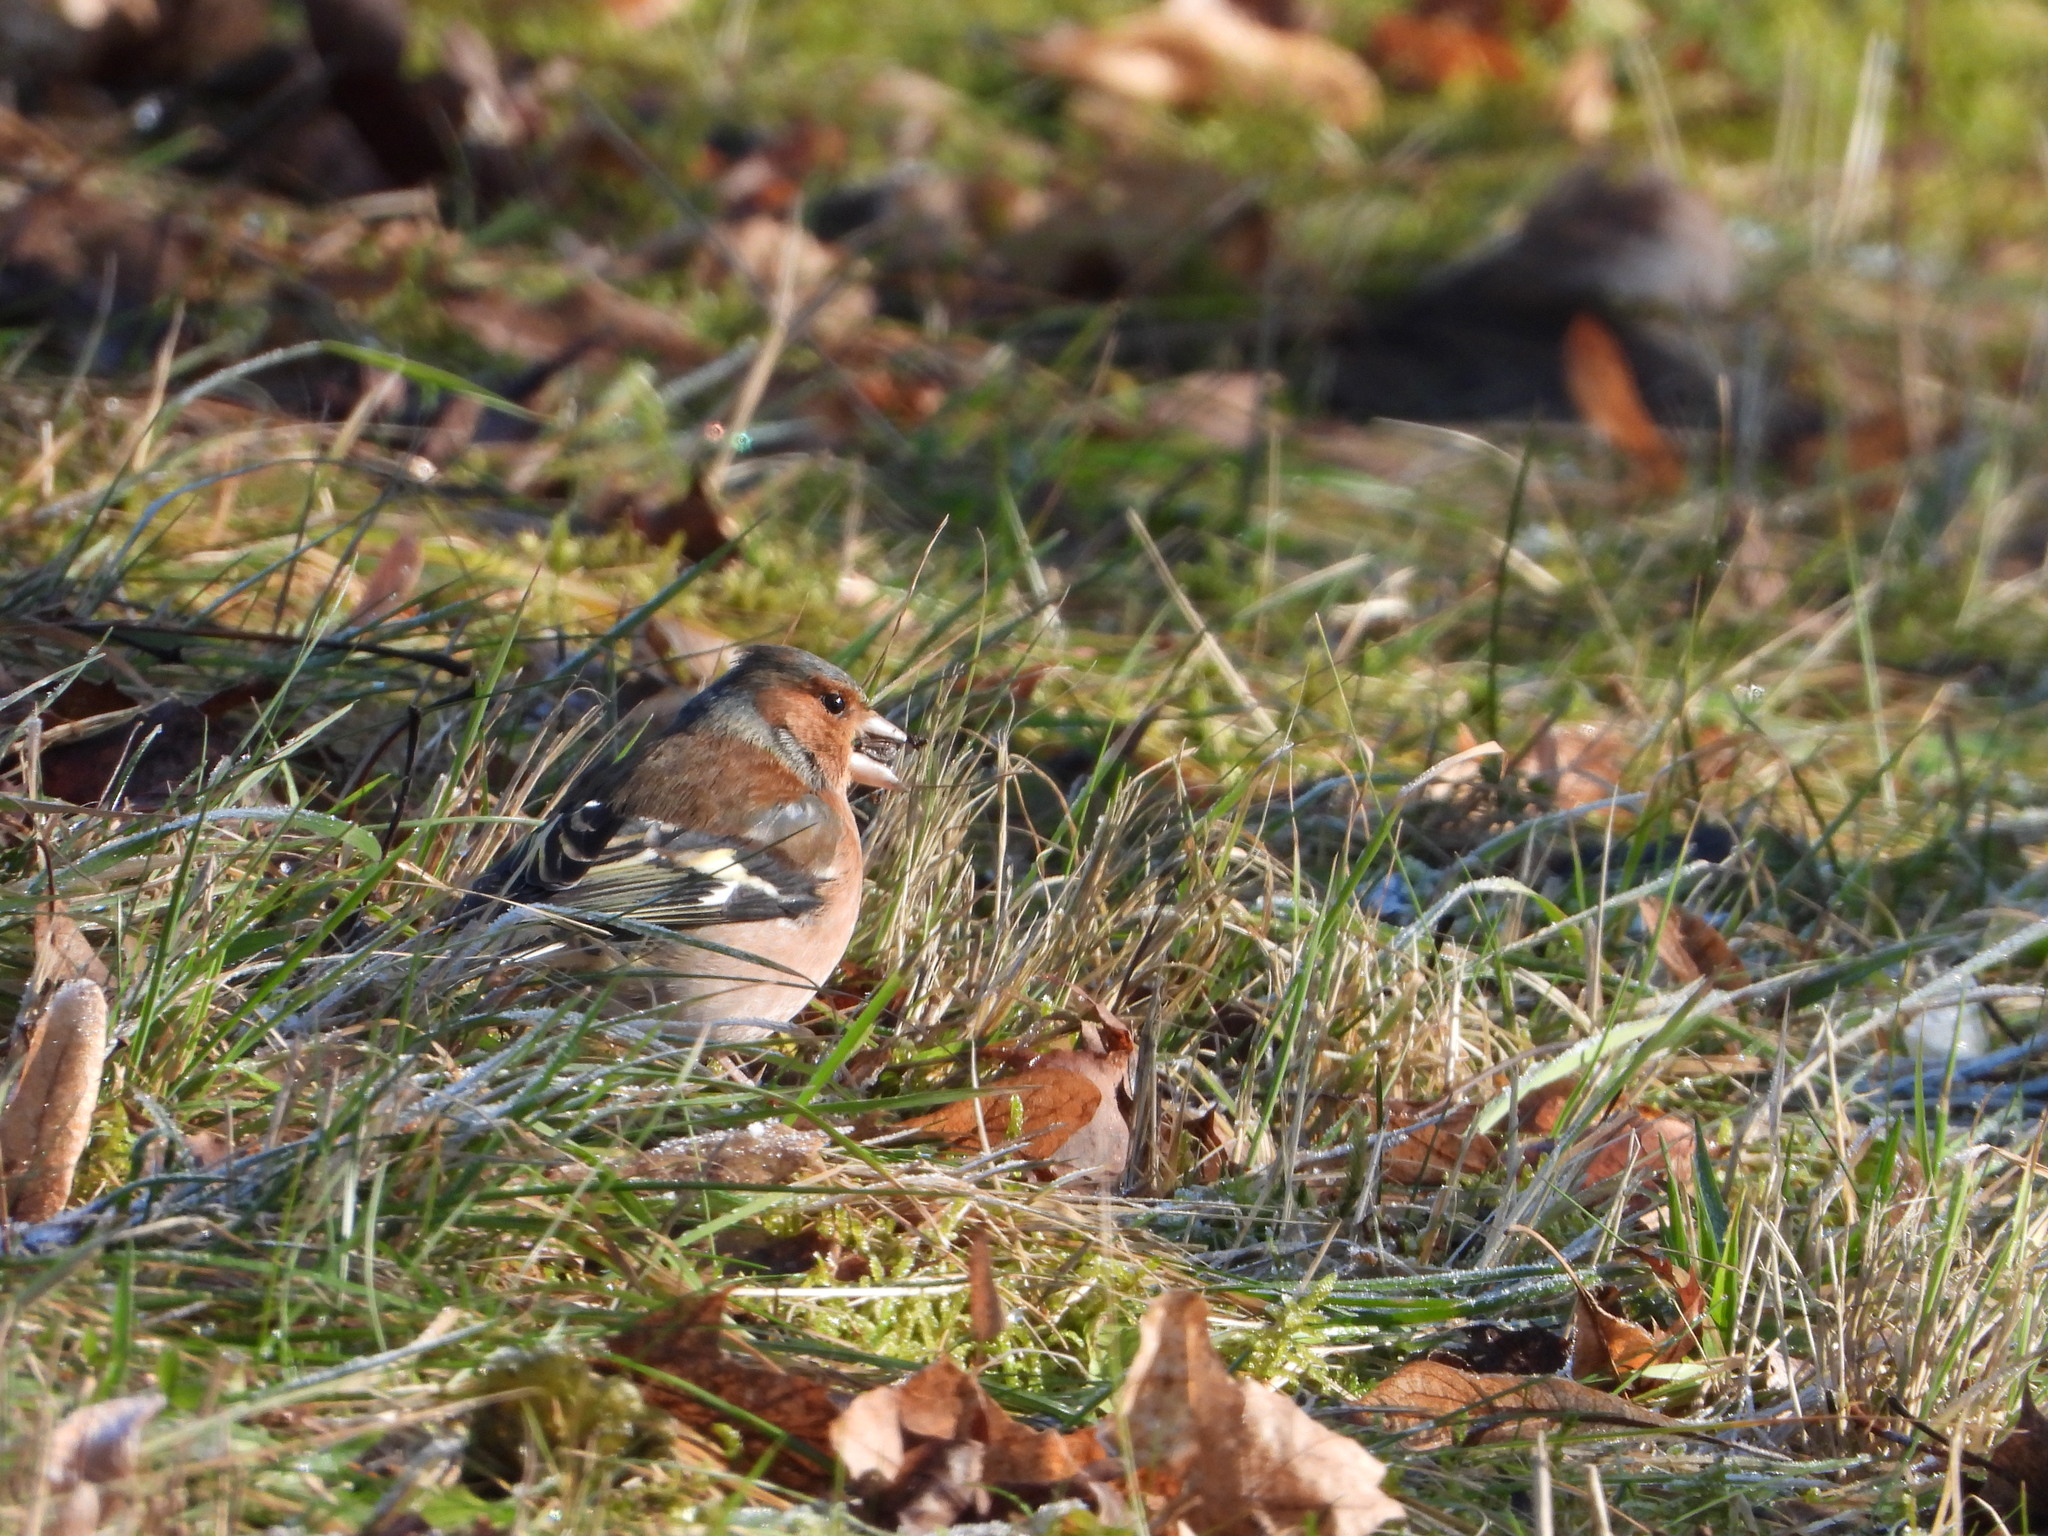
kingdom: Animalia
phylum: Chordata
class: Aves
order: Passeriformes
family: Fringillidae
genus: Fringilla
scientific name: Fringilla coelebs
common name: Common chaffinch
